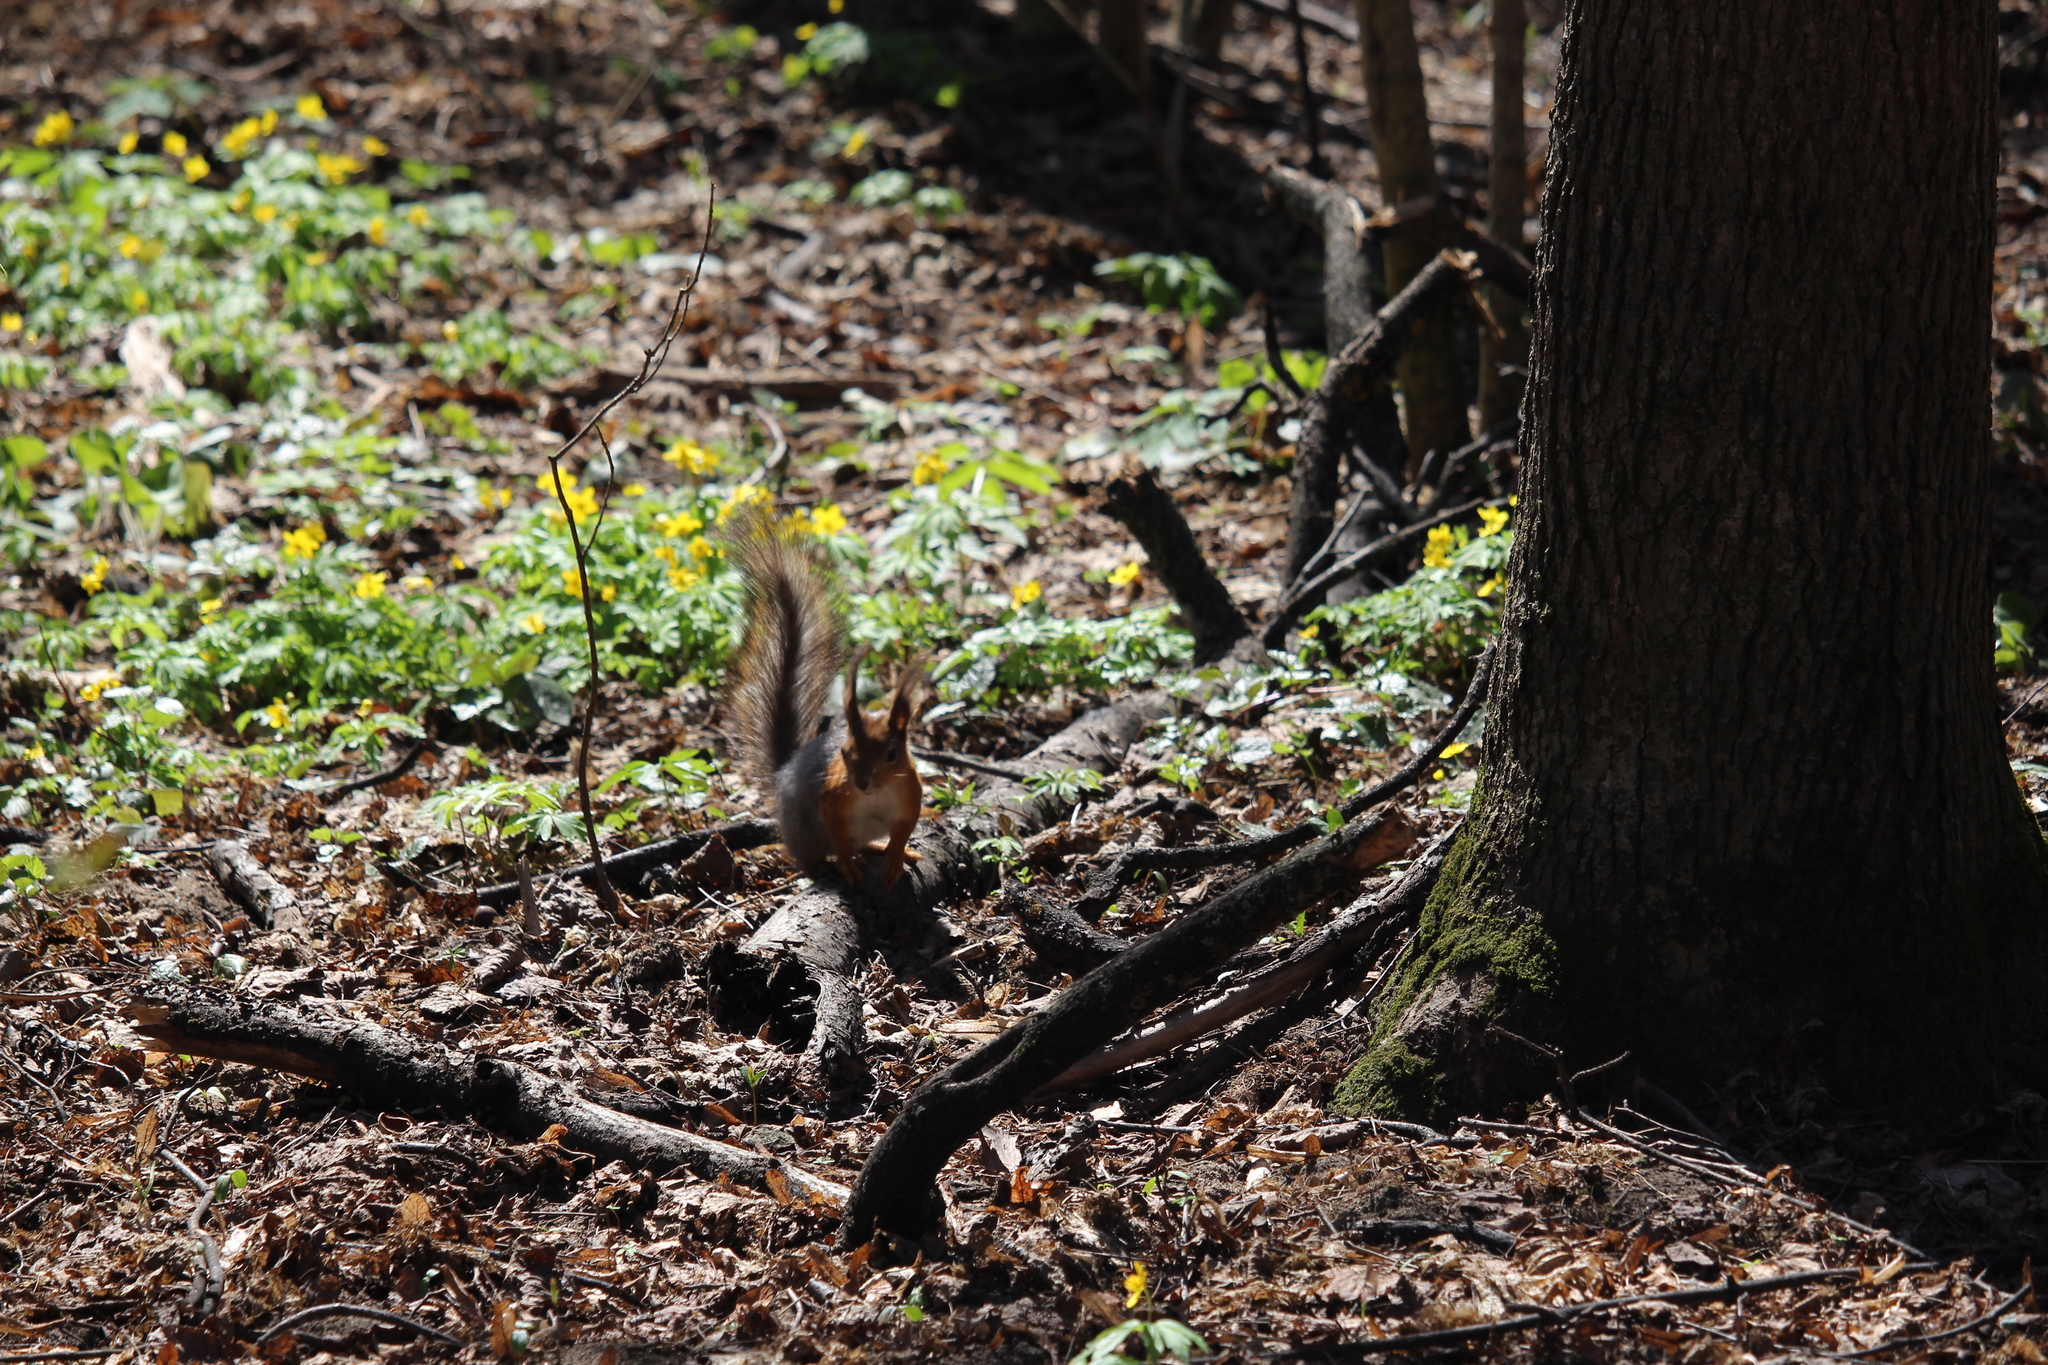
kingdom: Animalia
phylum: Chordata
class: Mammalia
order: Rodentia
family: Sciuridae
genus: Sciurus
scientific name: Sciurus vulgaris
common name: Eurasian red squirrel
